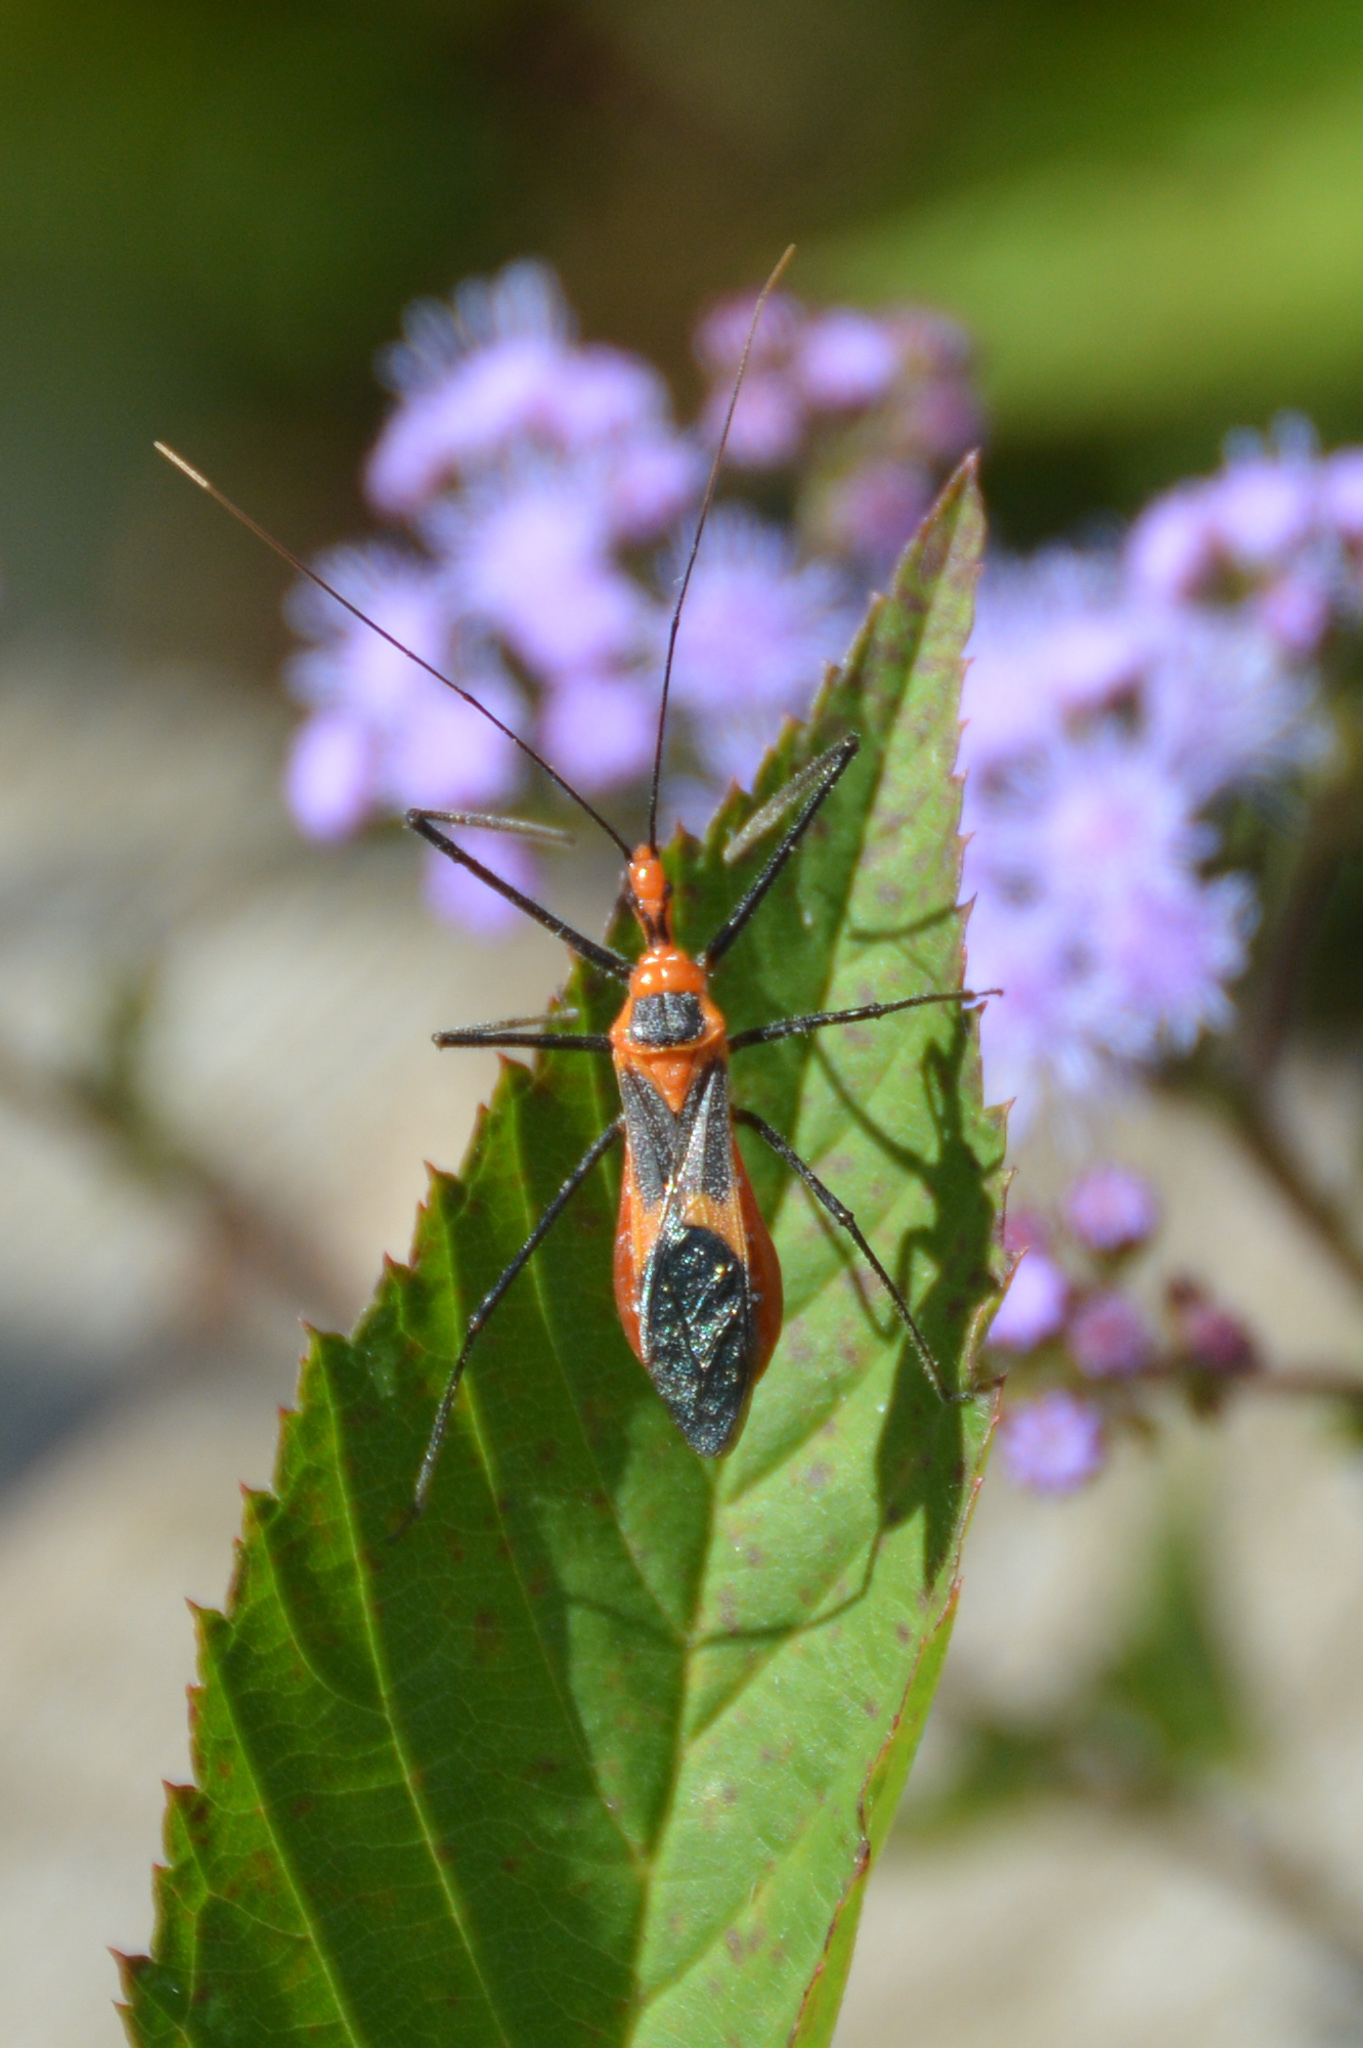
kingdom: Animalia
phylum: Arthropoda
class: Insecta
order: Hemiptera
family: Reduviidae
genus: Zelus
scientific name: Zelus longipes
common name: Milkweed assassin bug
